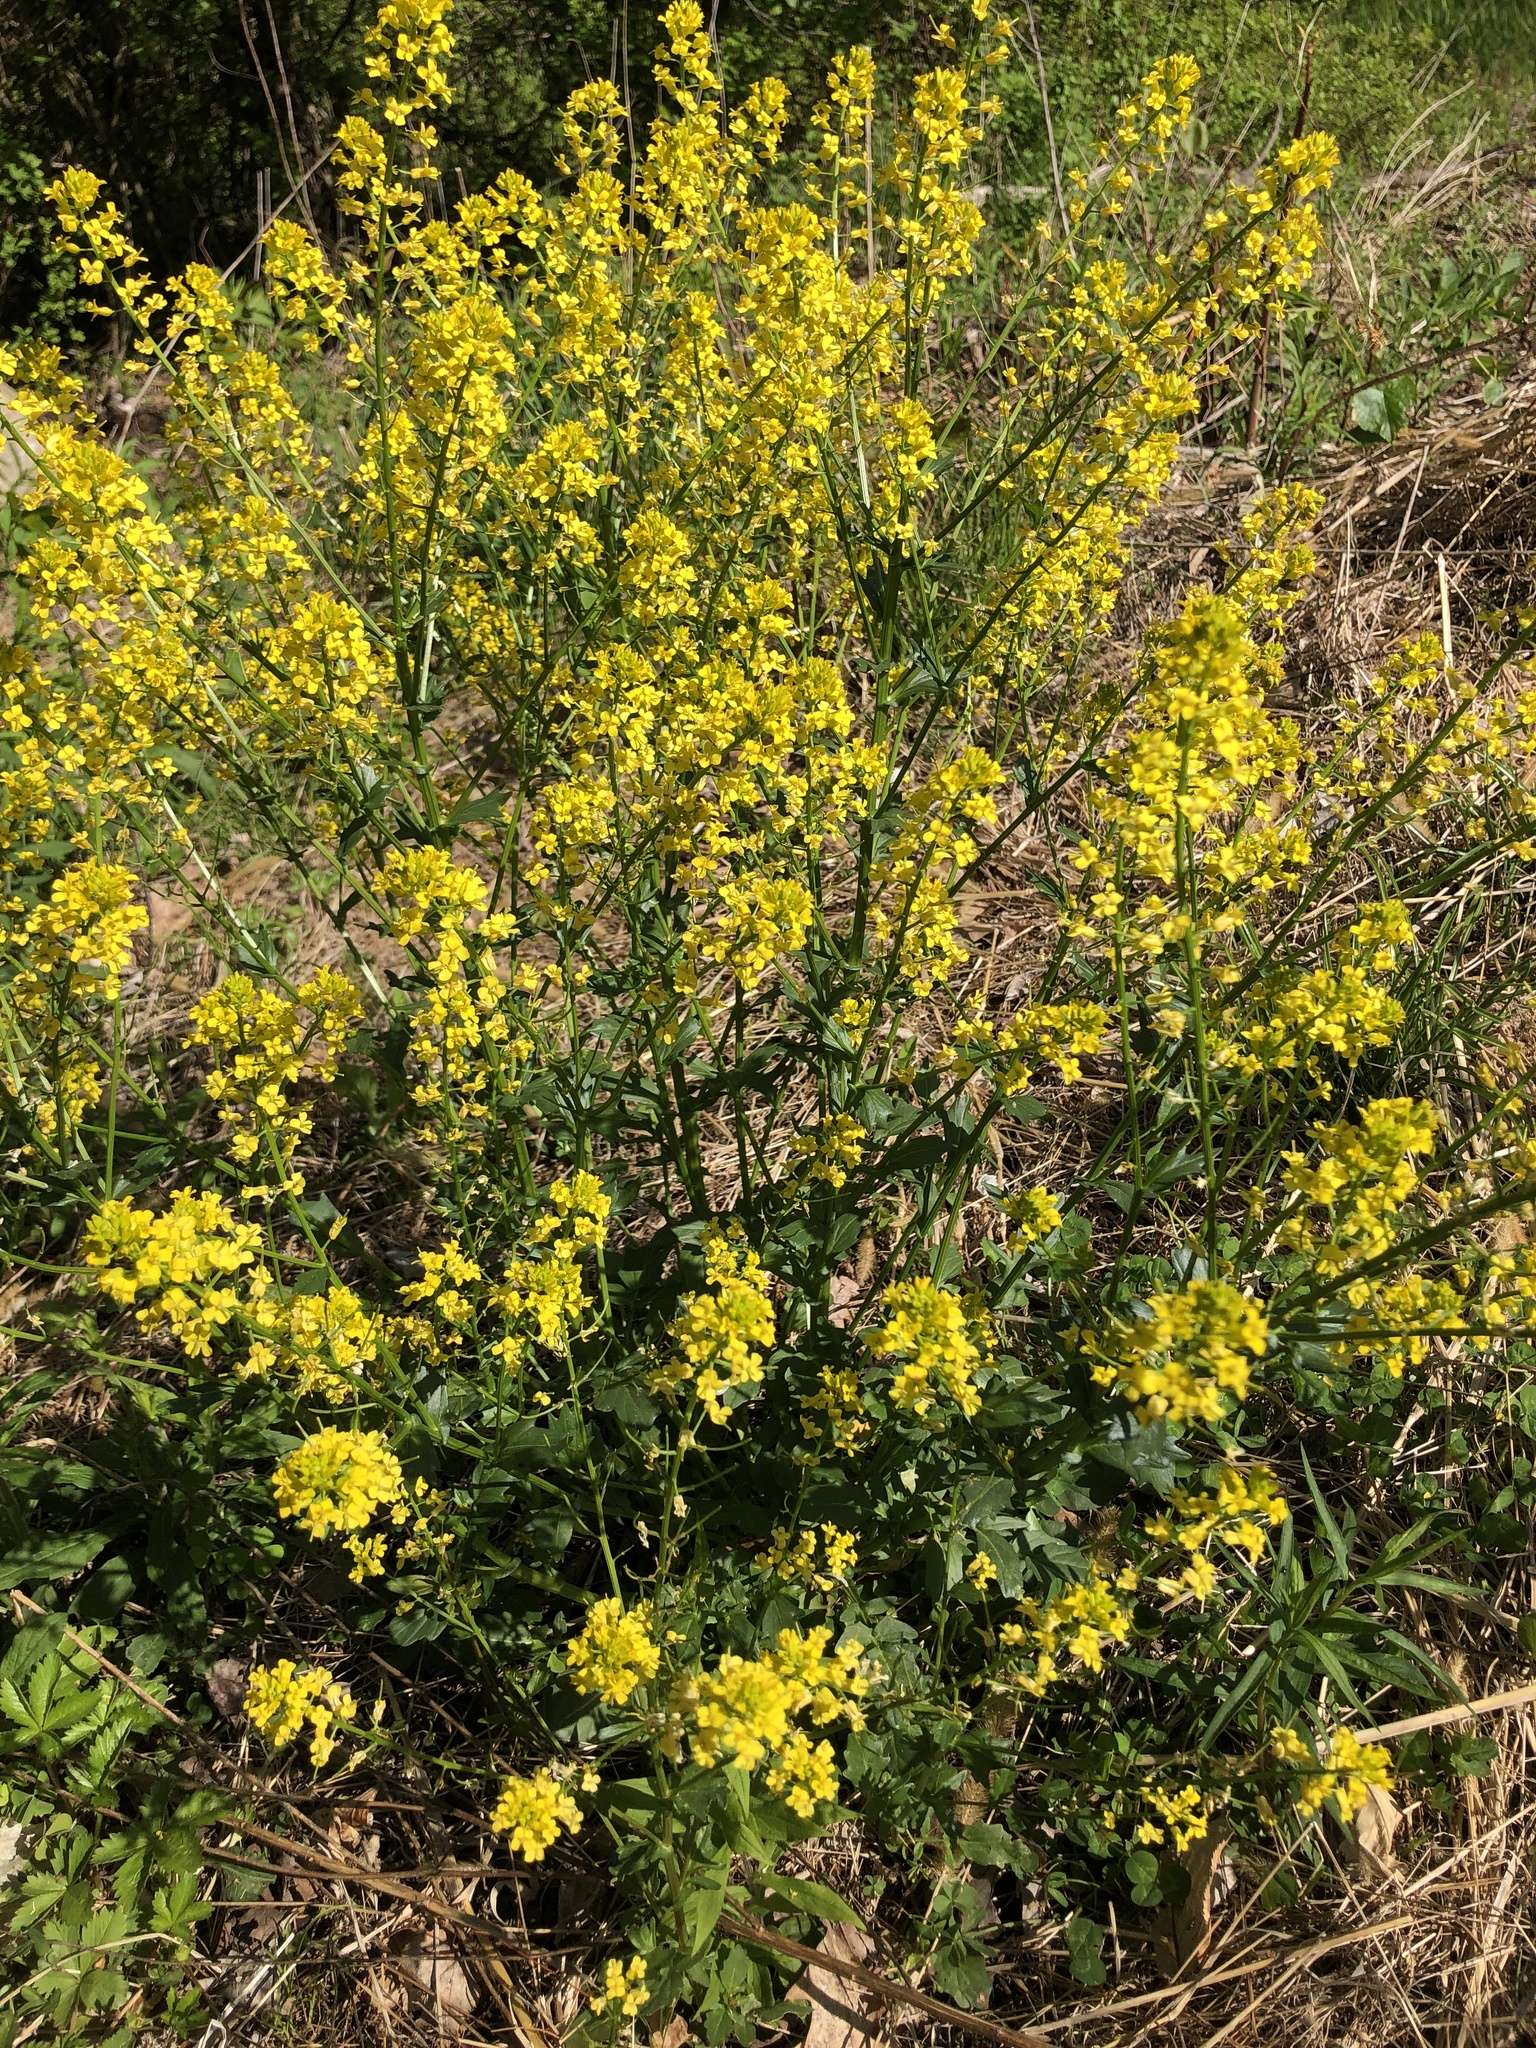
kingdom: Plantae
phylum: Tracheophyta
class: Magnoliopsida
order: Brassicales
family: Brassicaceae
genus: Barbarea
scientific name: Barbarea vulgaris
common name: Cressy-greens
